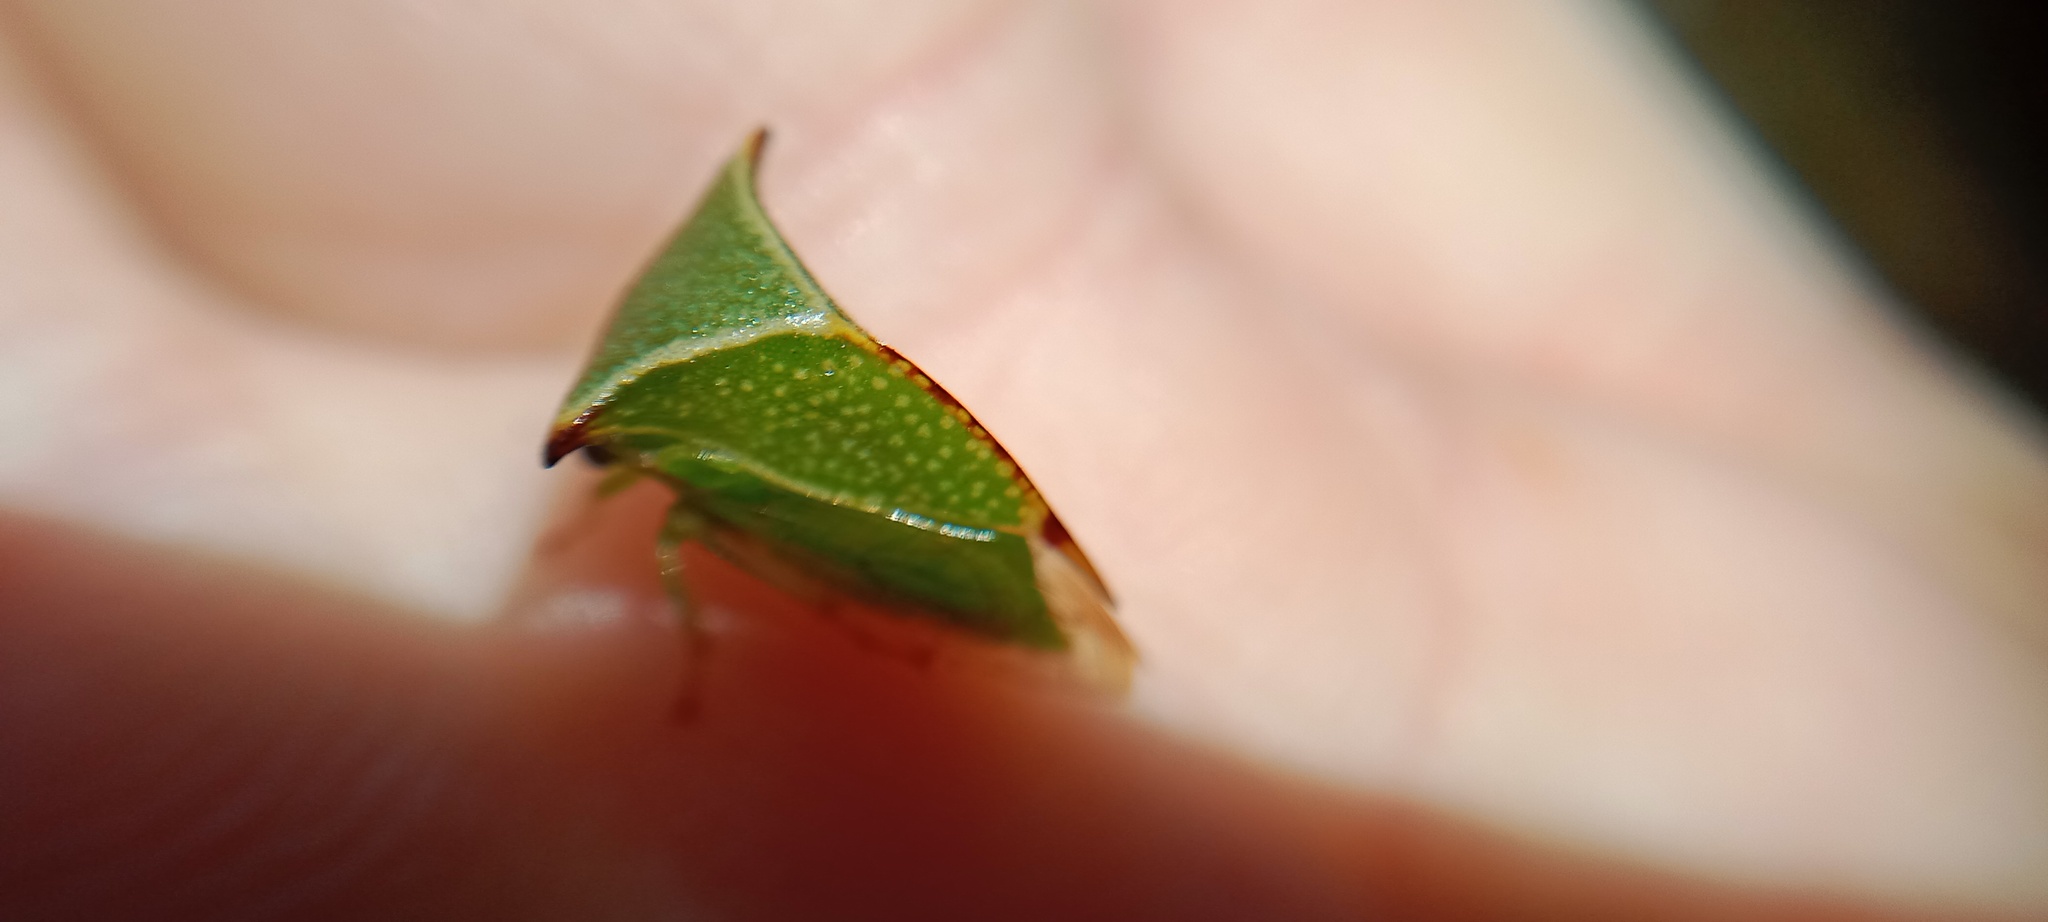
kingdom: Animalia
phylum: Arthropoda
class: Insecta
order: Hemiptera
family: Membracidae
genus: Stictocephala
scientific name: Stictocephala bisonia
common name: American buffalo treehopper
